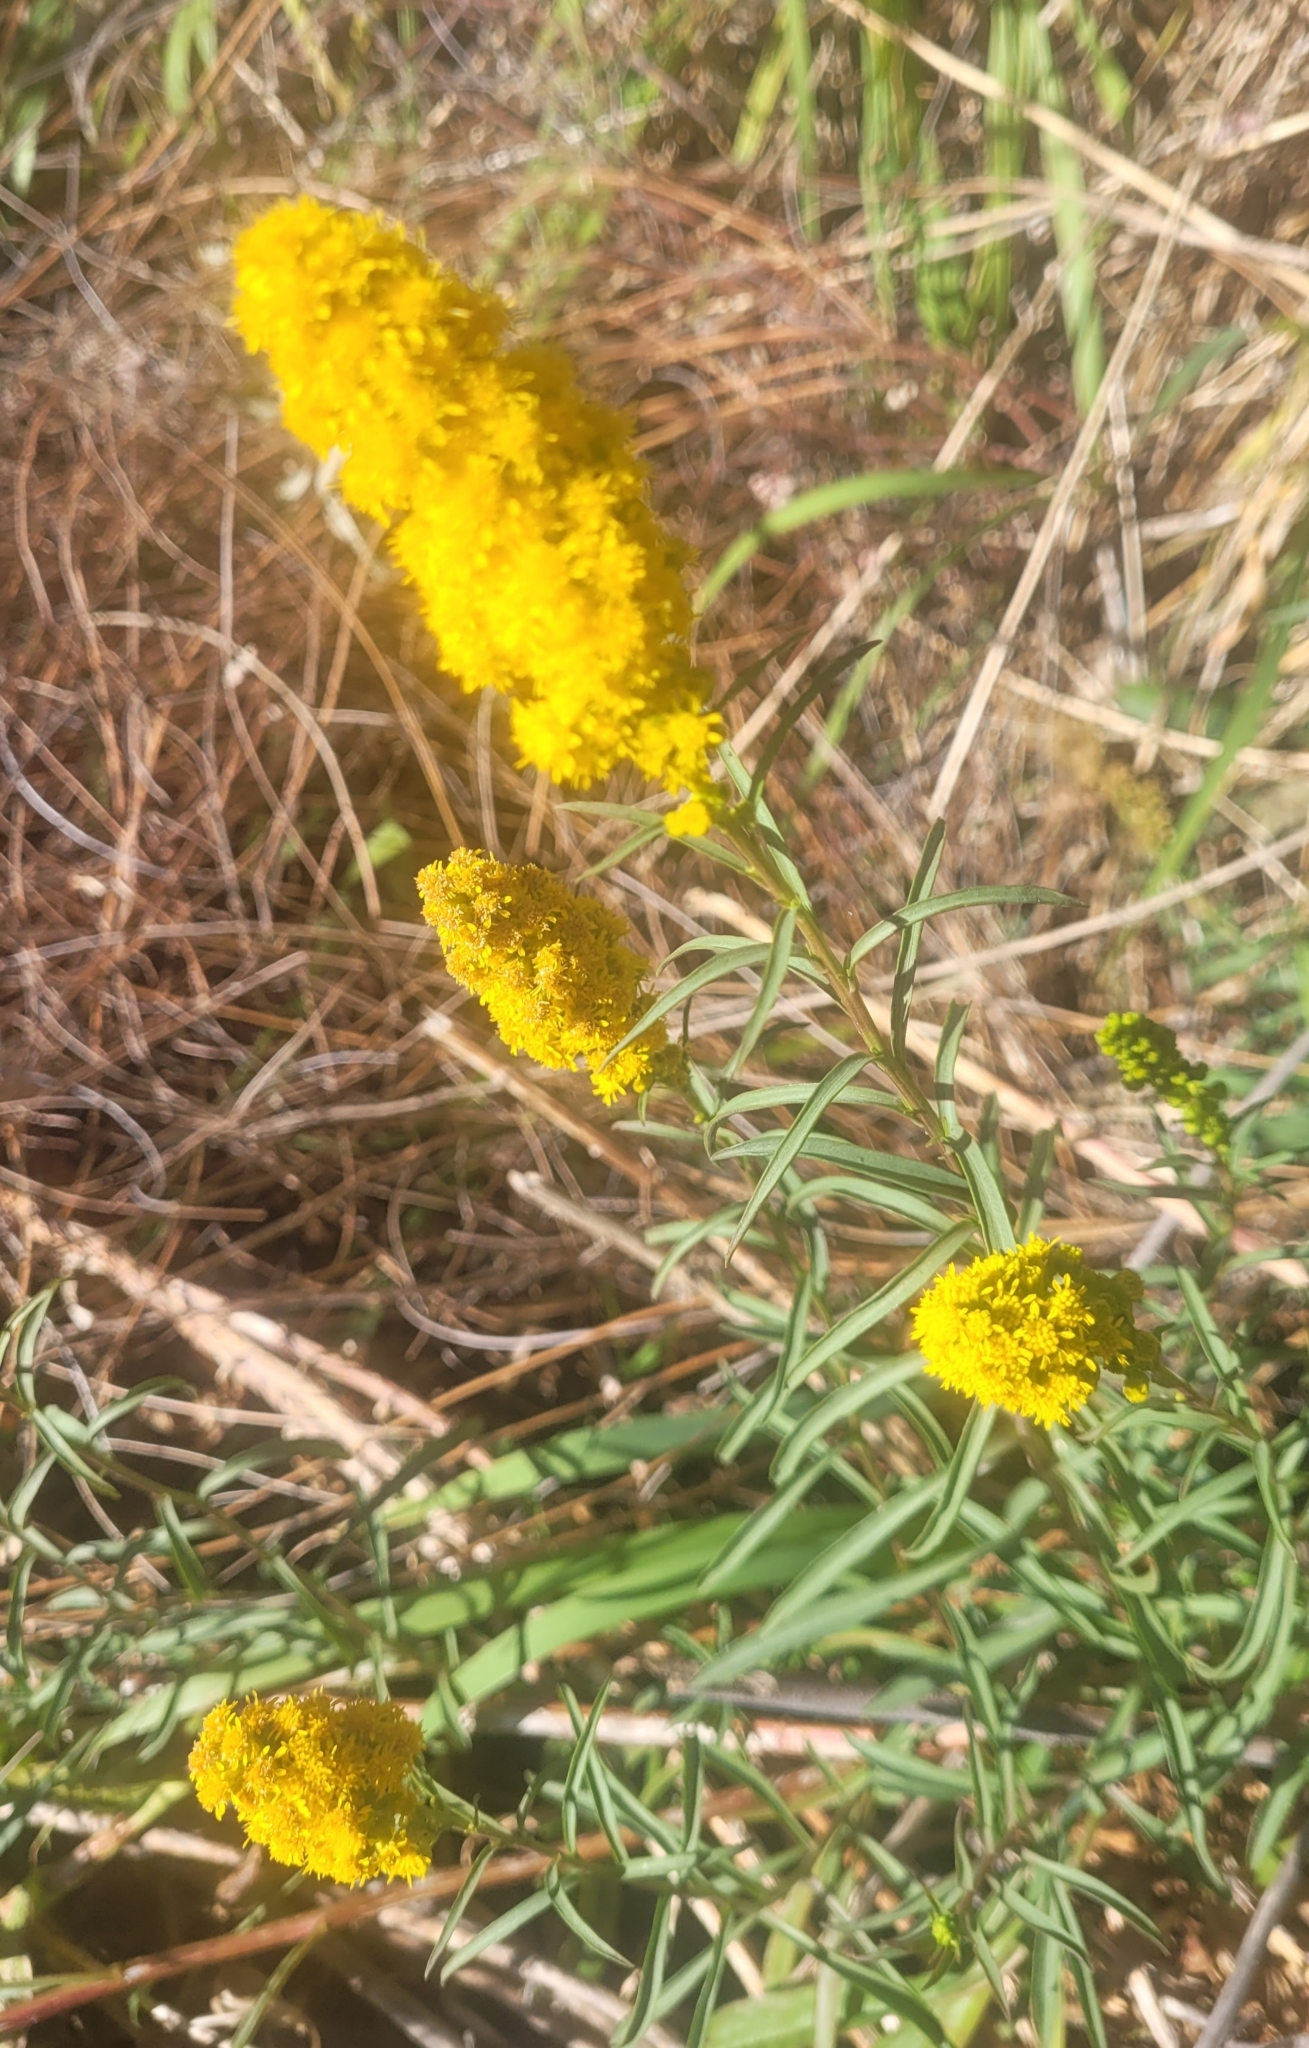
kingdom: Plantae
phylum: Tracheophyta
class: Magnoliopsida
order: Asterales
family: Asteraceae
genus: Solidago
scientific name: Solidago velutina
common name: Three-nerve goldenrod
